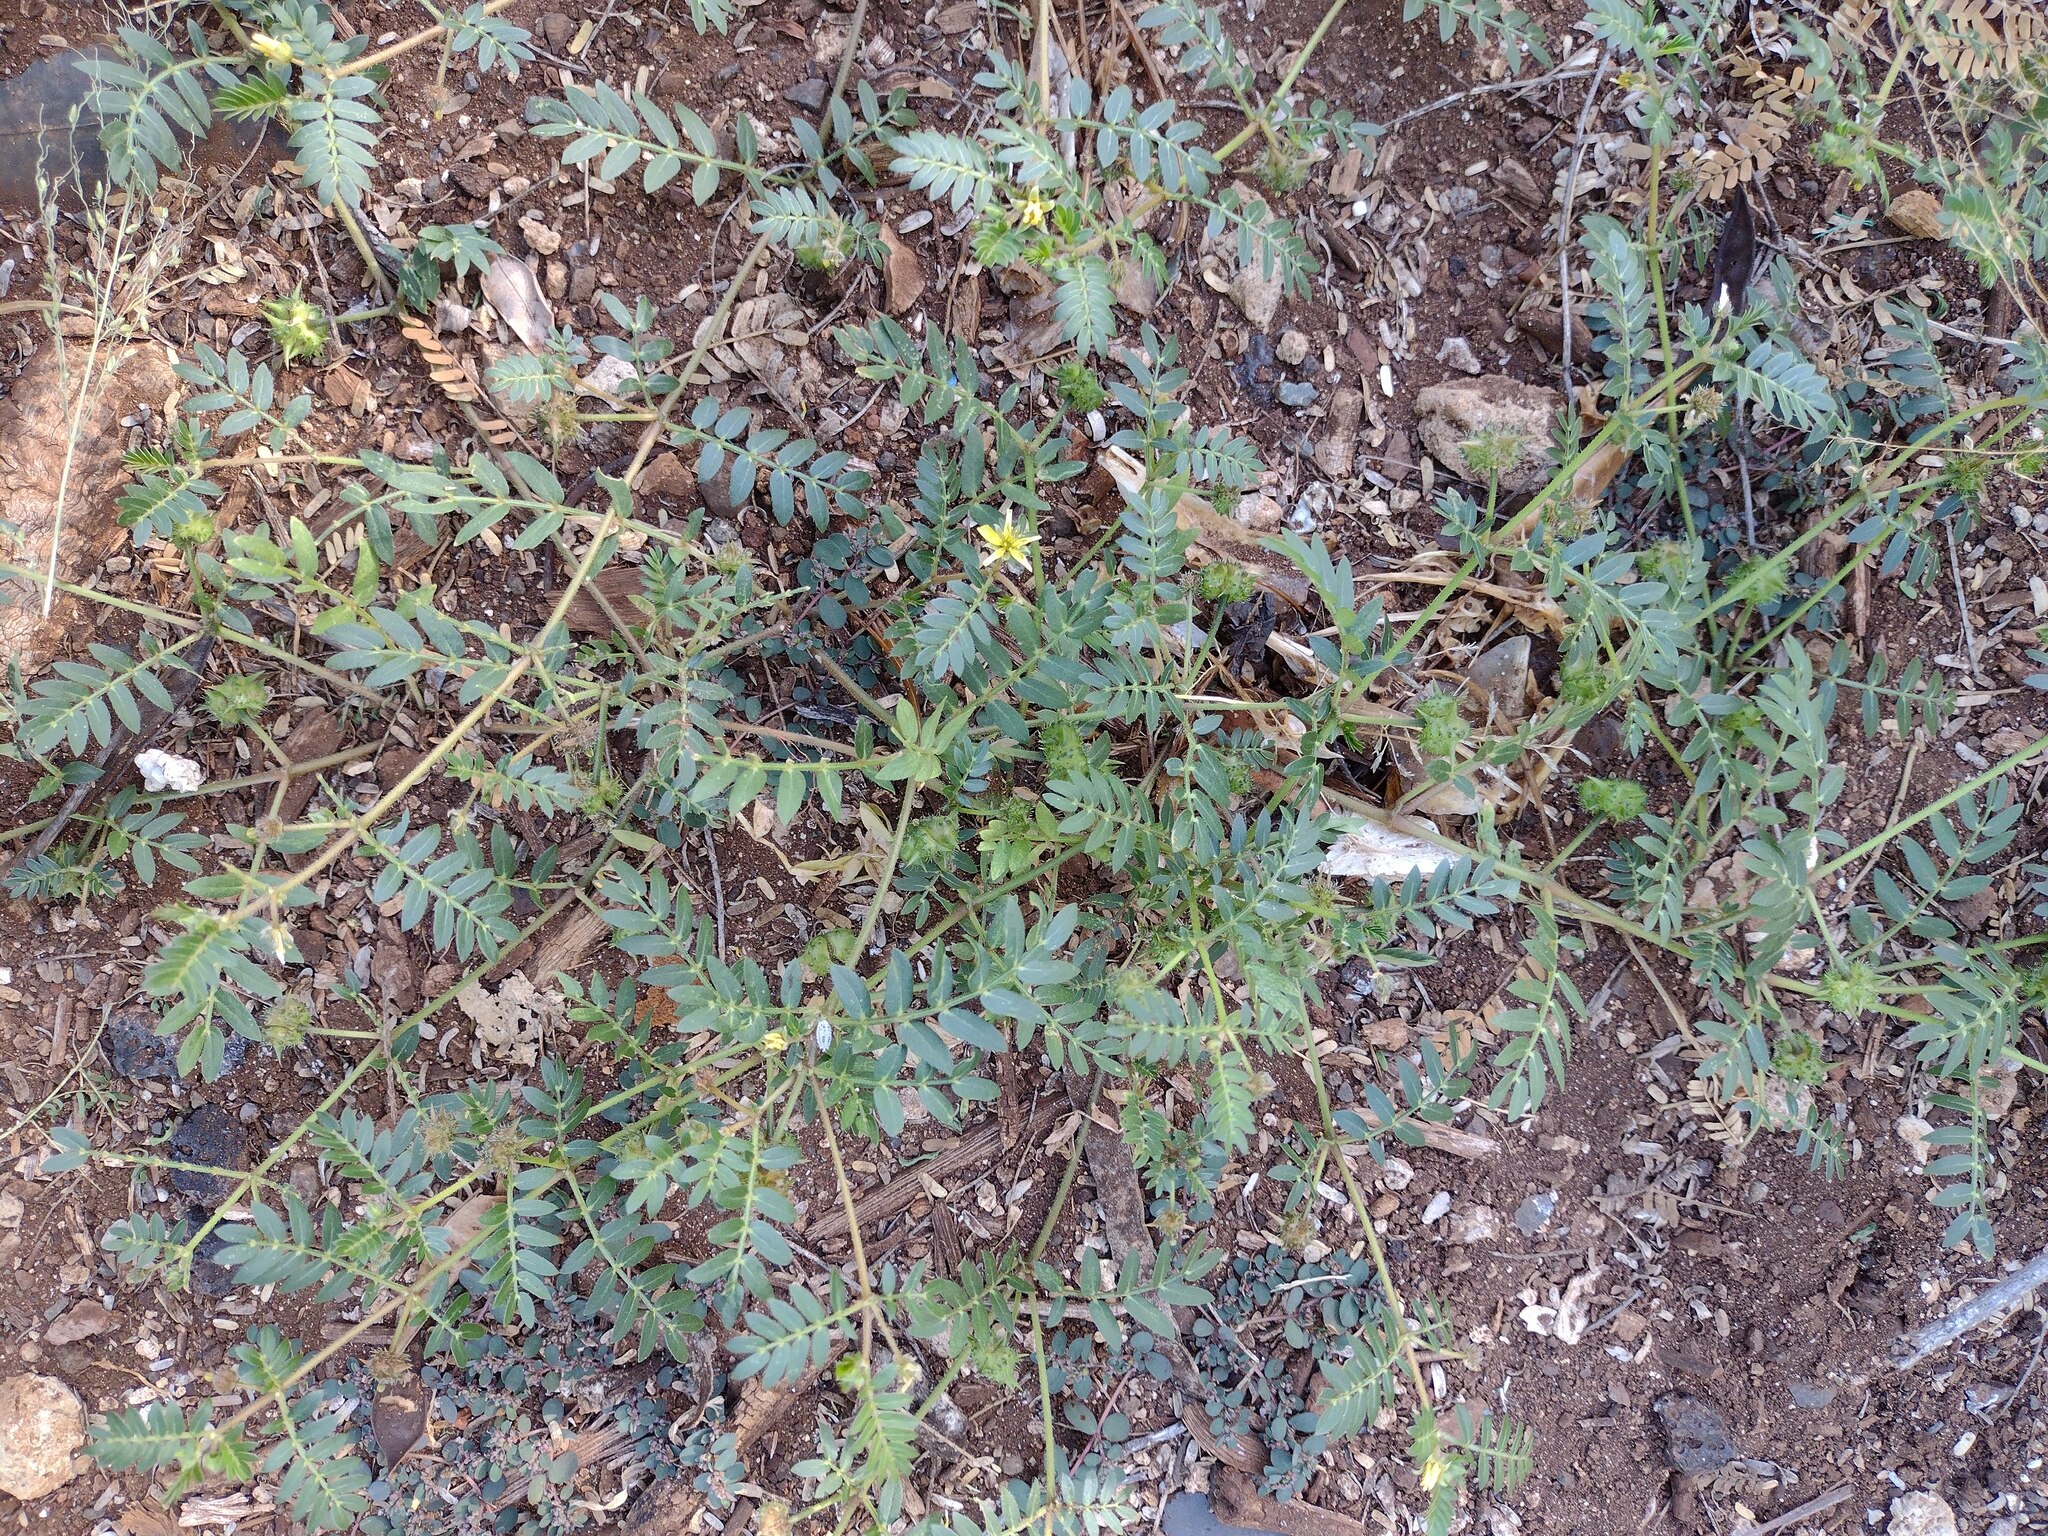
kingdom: Plantae
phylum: Tracheophyta
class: Magnoliopsida
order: Zygophyllales
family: Zygophyllaceae
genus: Tribulus
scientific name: Tribulus terrestris
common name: Puncturevine
